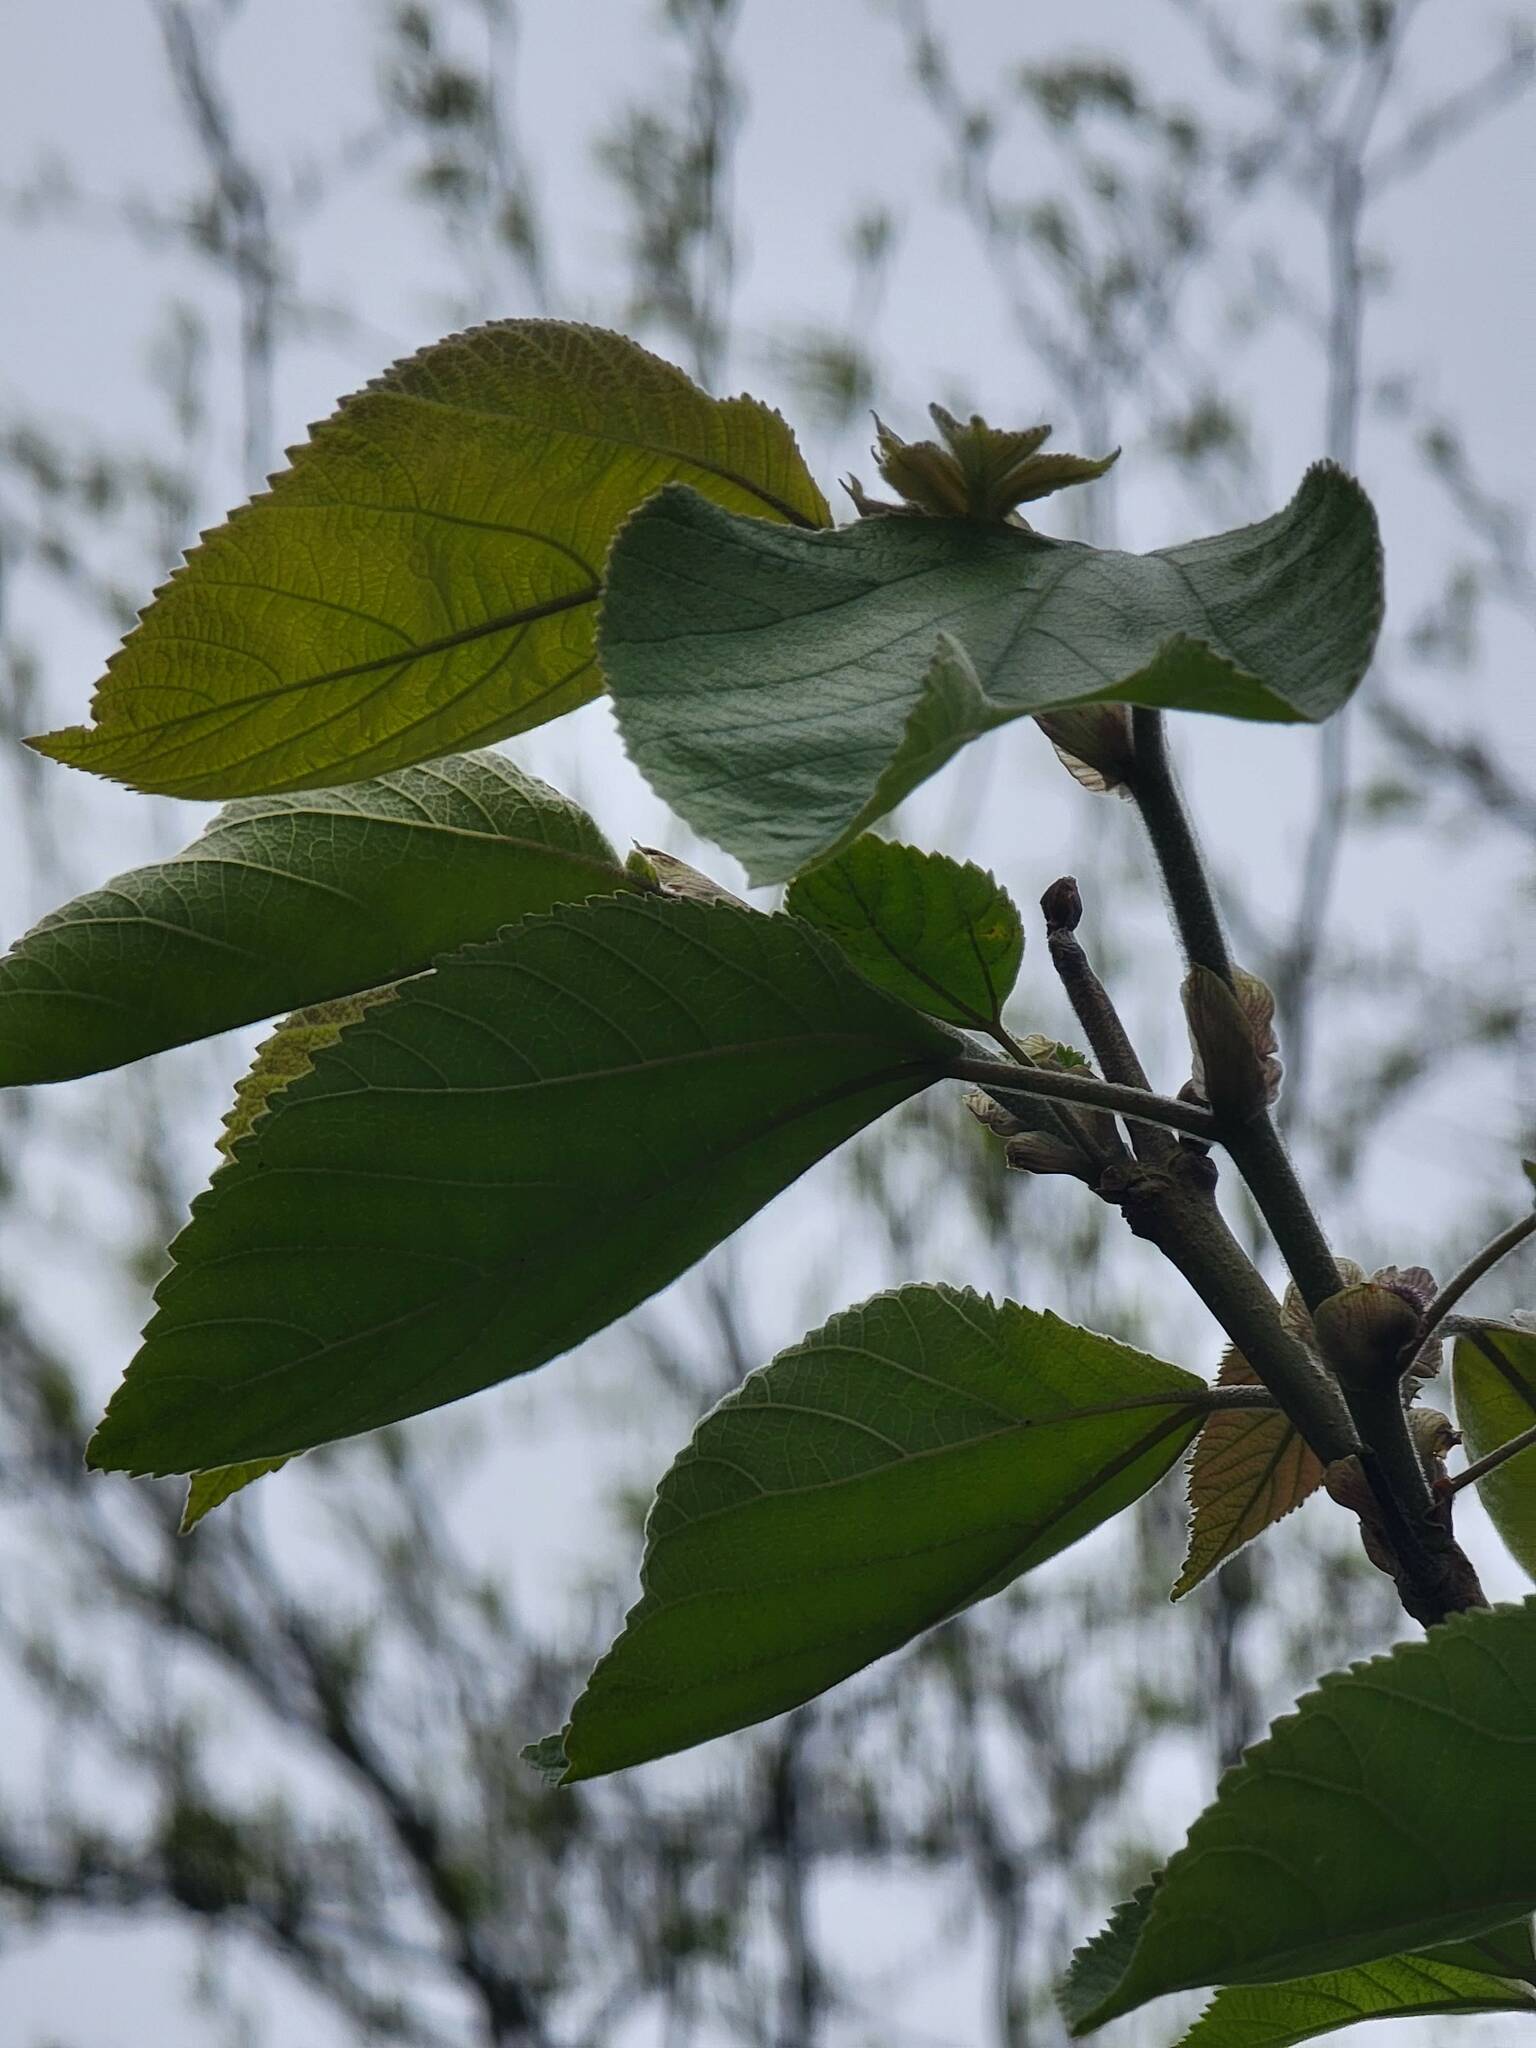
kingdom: Plantae
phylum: Tracheophyta
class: Magnoliopsida
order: Rosales
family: Moraceae
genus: Broussonetia
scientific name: Broussonetia papyrifera
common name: Paper mulberry
